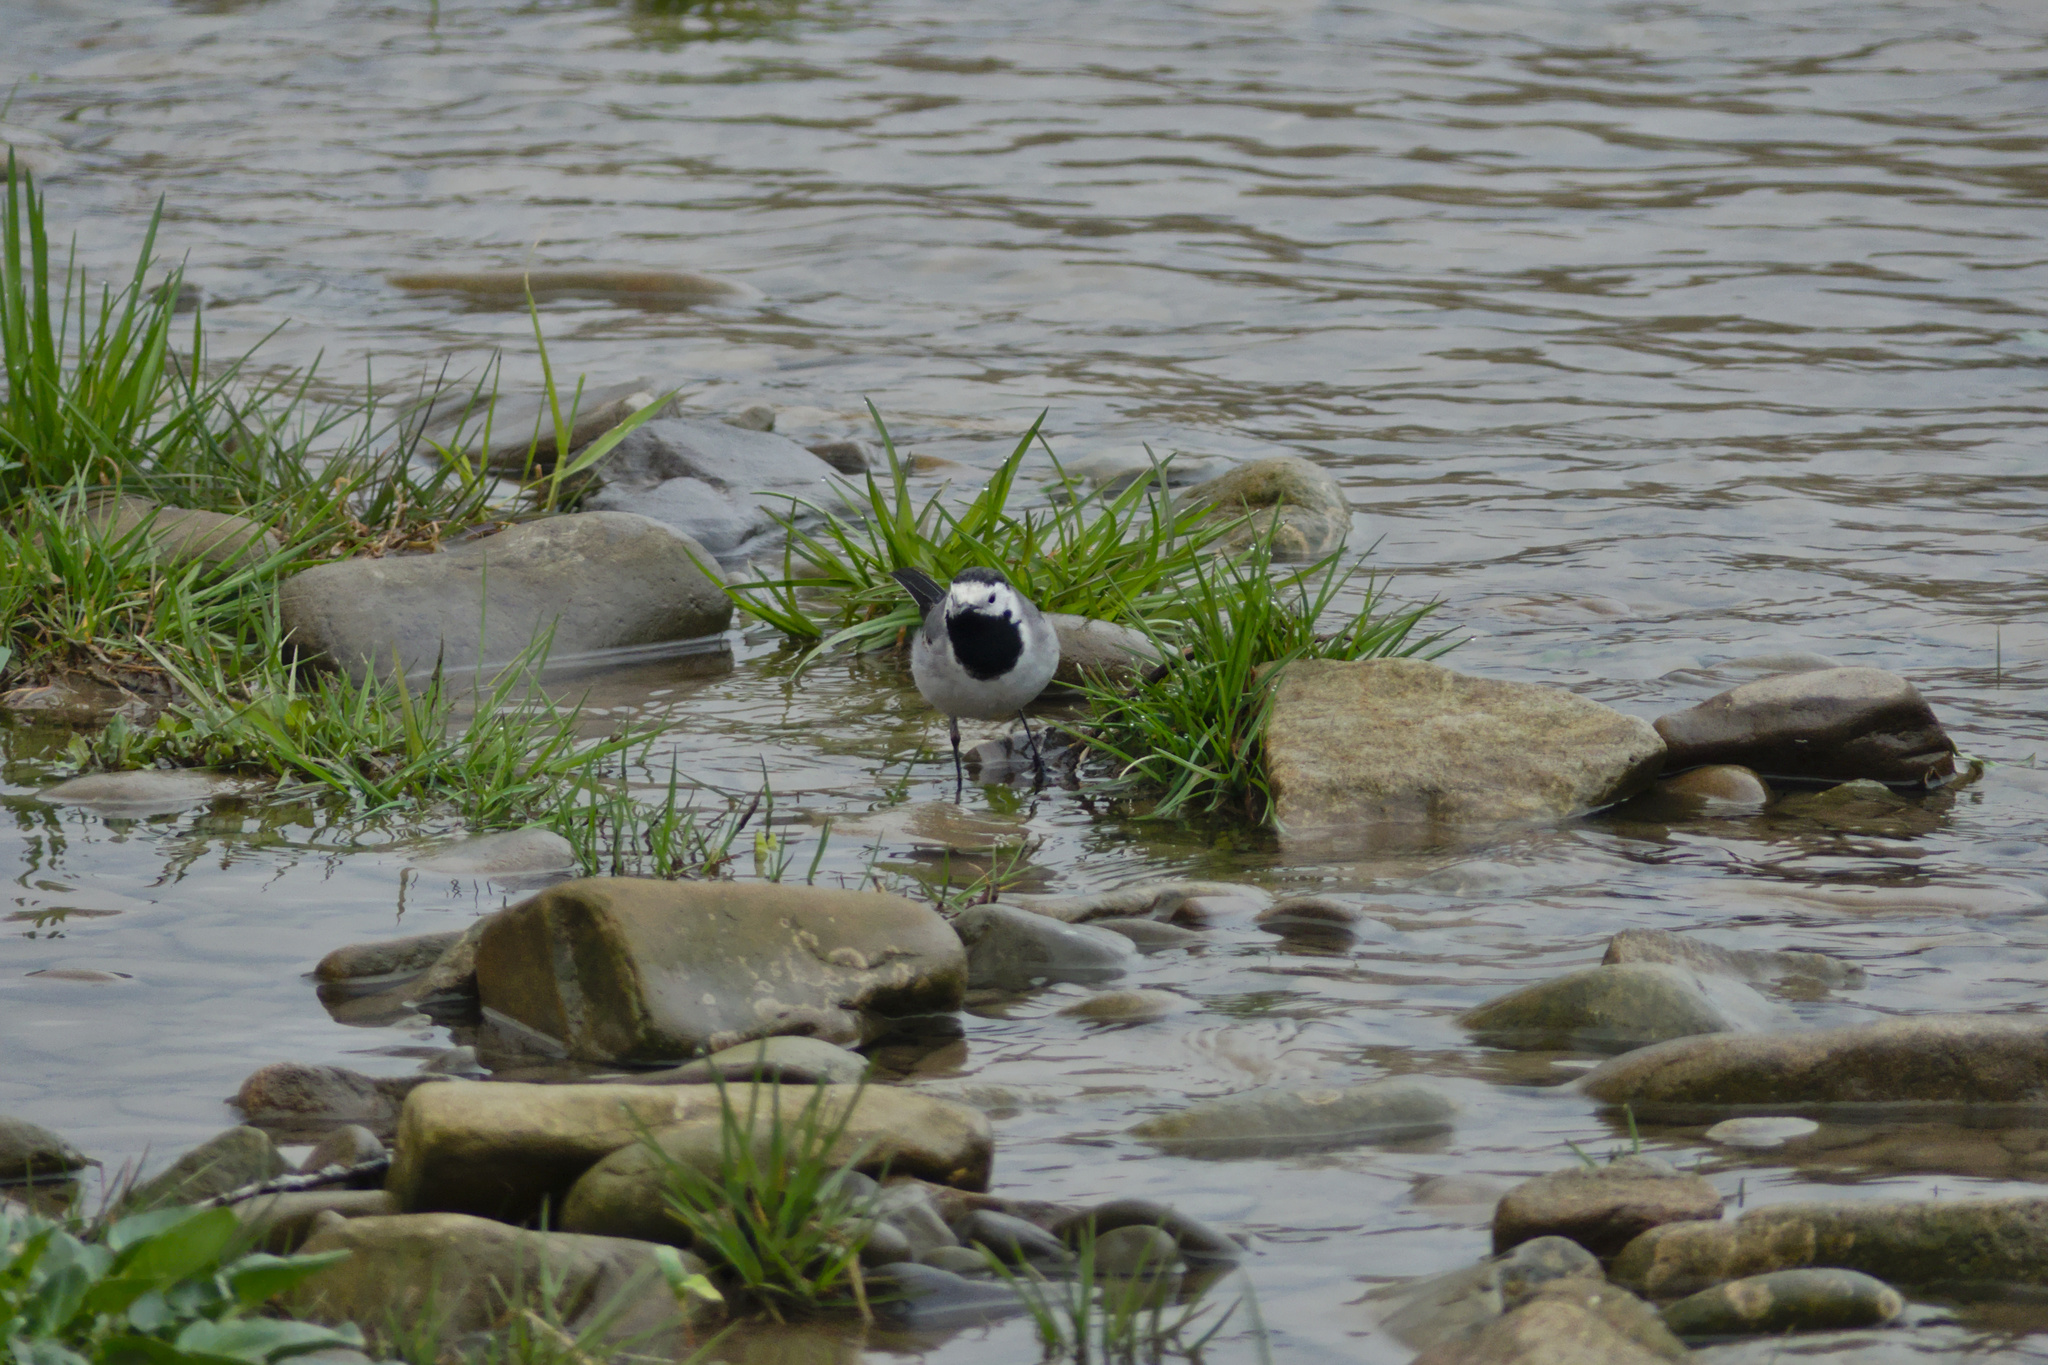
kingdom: Animalia
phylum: Chordata
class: Aves
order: Passeriformes
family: Motacillidae
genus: Motacilla
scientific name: Motacilla alba
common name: White wagtail
